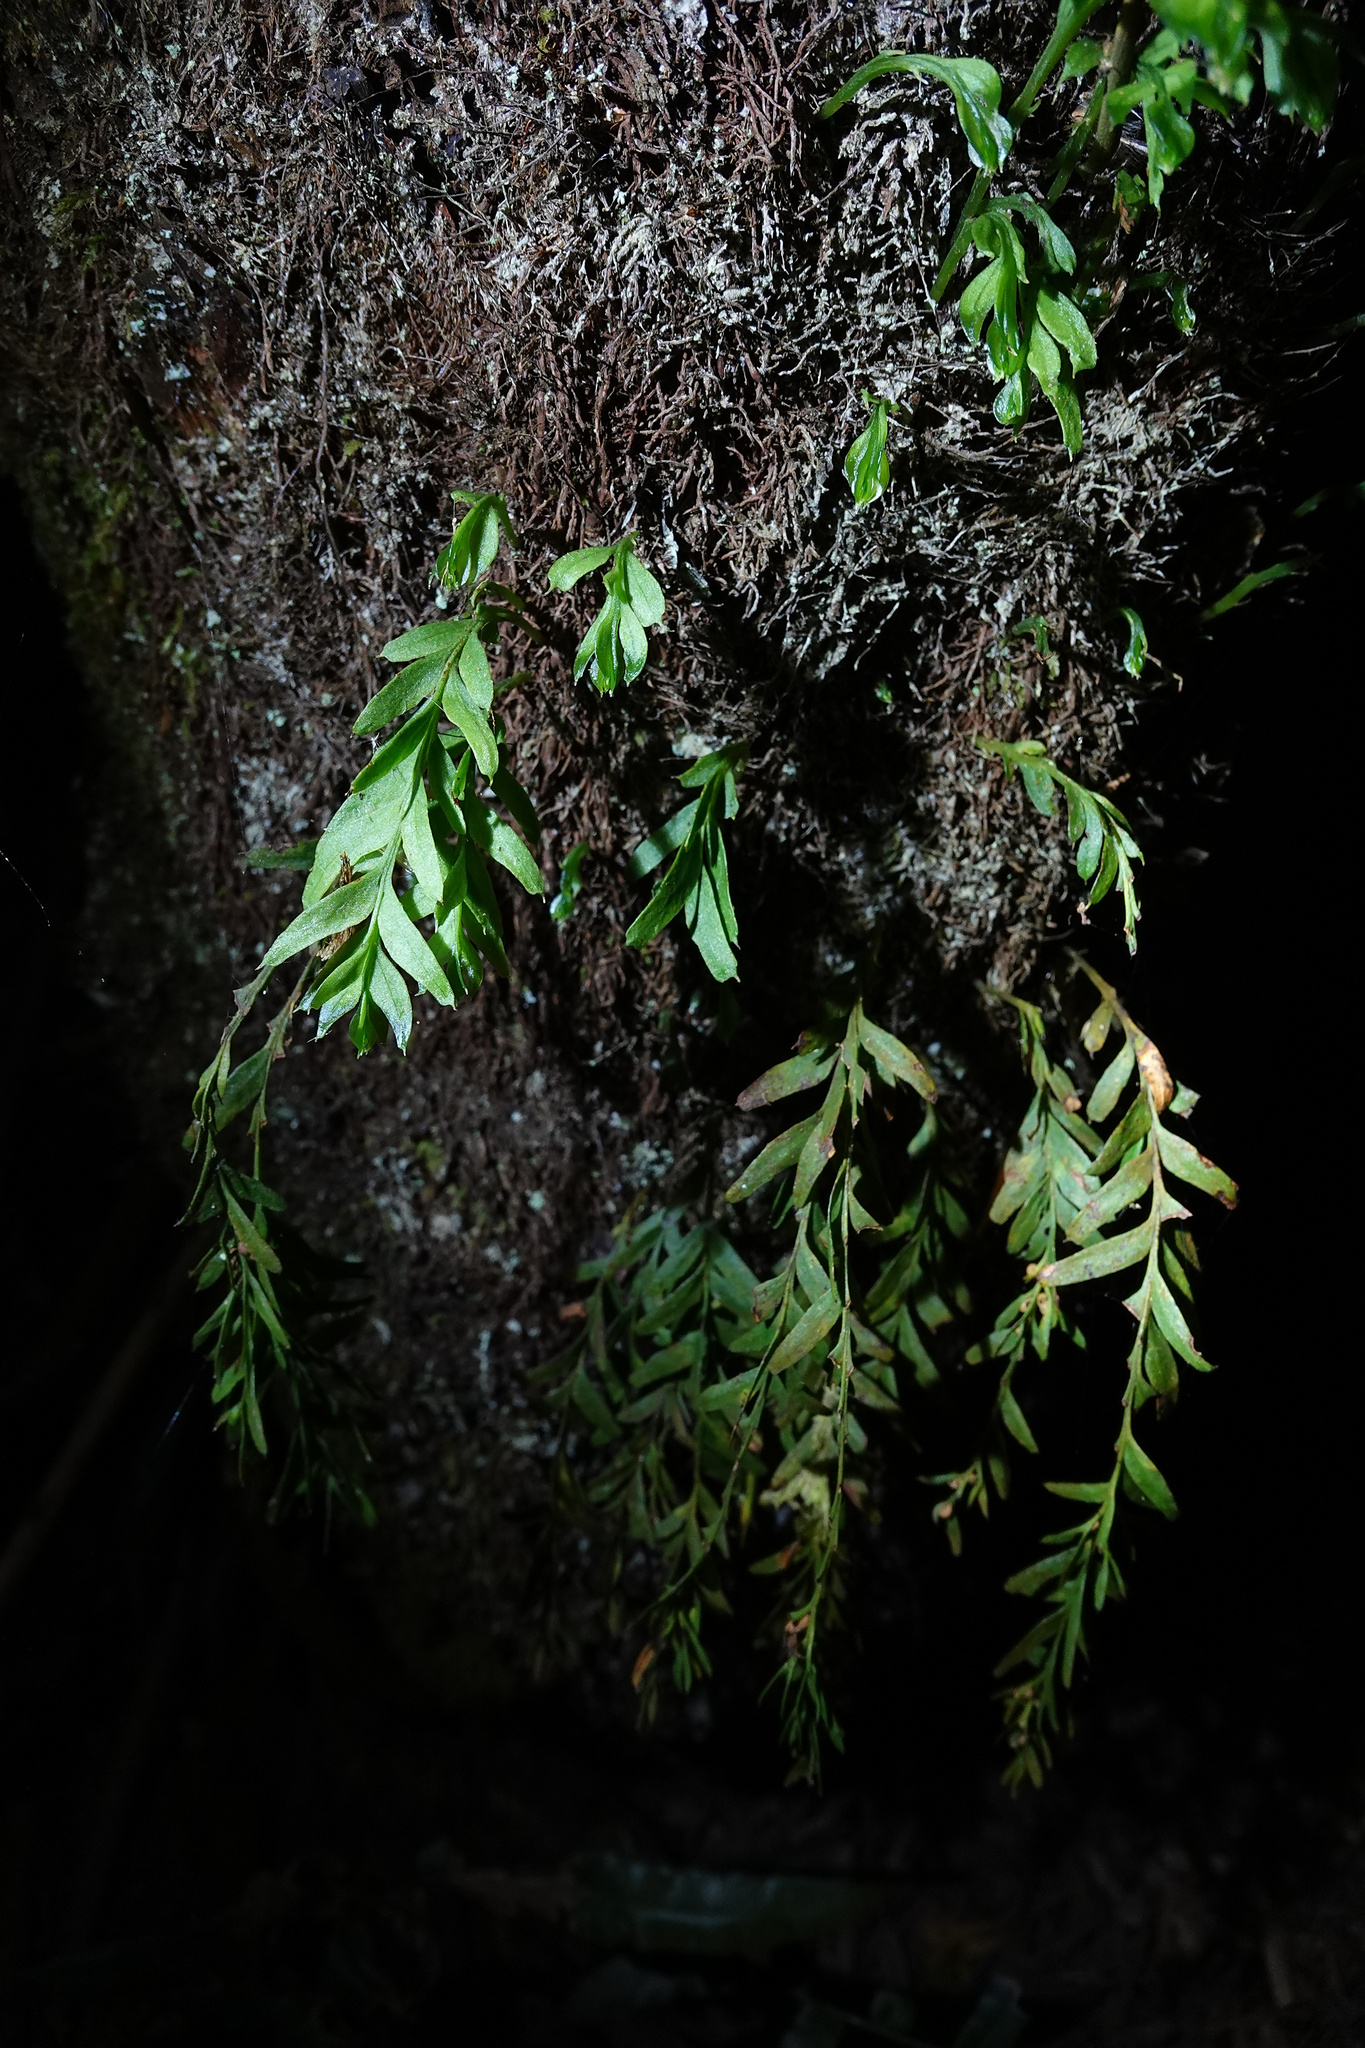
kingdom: Plantae
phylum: Tracheophyta
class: Polypodiopsida
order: Psilotales
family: Psilotaceae
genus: Tmesipteris
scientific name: Tmesipteris obliqua
